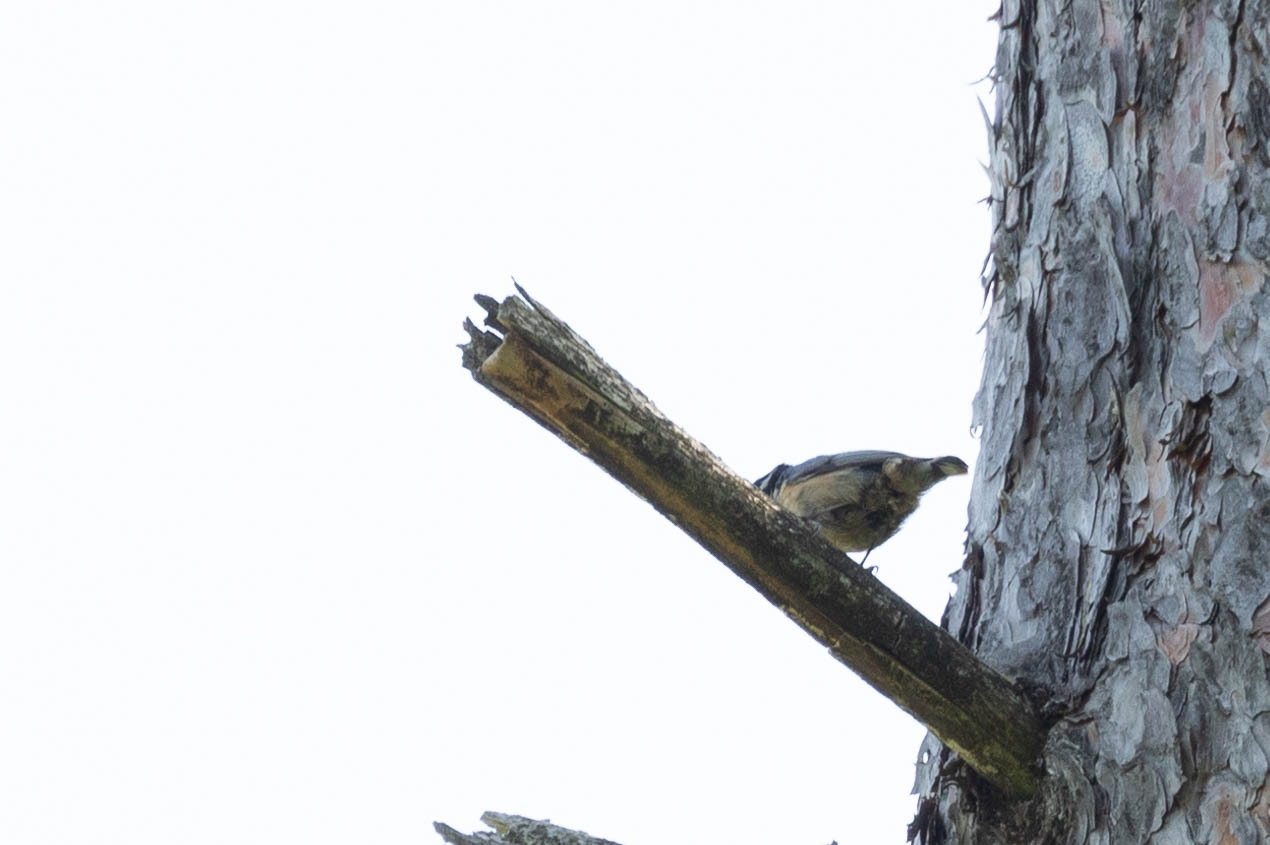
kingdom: Animalia
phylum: Chordata
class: Aves
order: Passeriformes
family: Sittidae
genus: Sitta
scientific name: Sitta canadensis
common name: Red-breasted nuthatch
